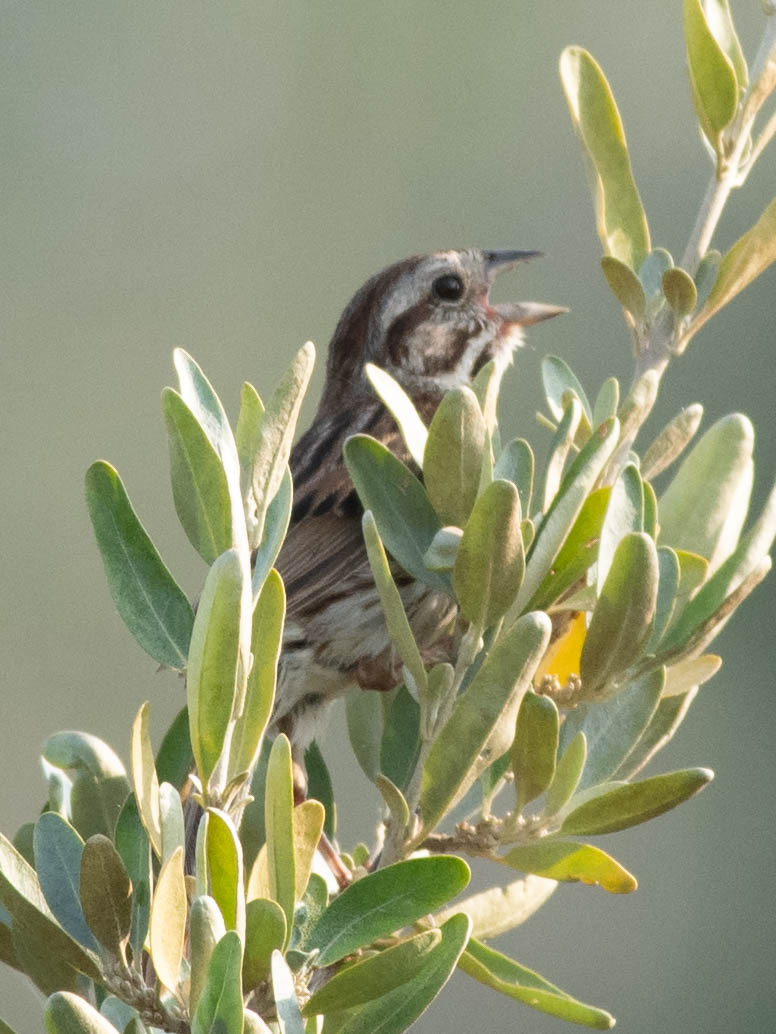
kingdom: Animalia
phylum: Chordata
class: Aves
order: Passeriformes
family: Passerellidae
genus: Melospiza
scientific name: Melospiza melodia
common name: Song sparrow
